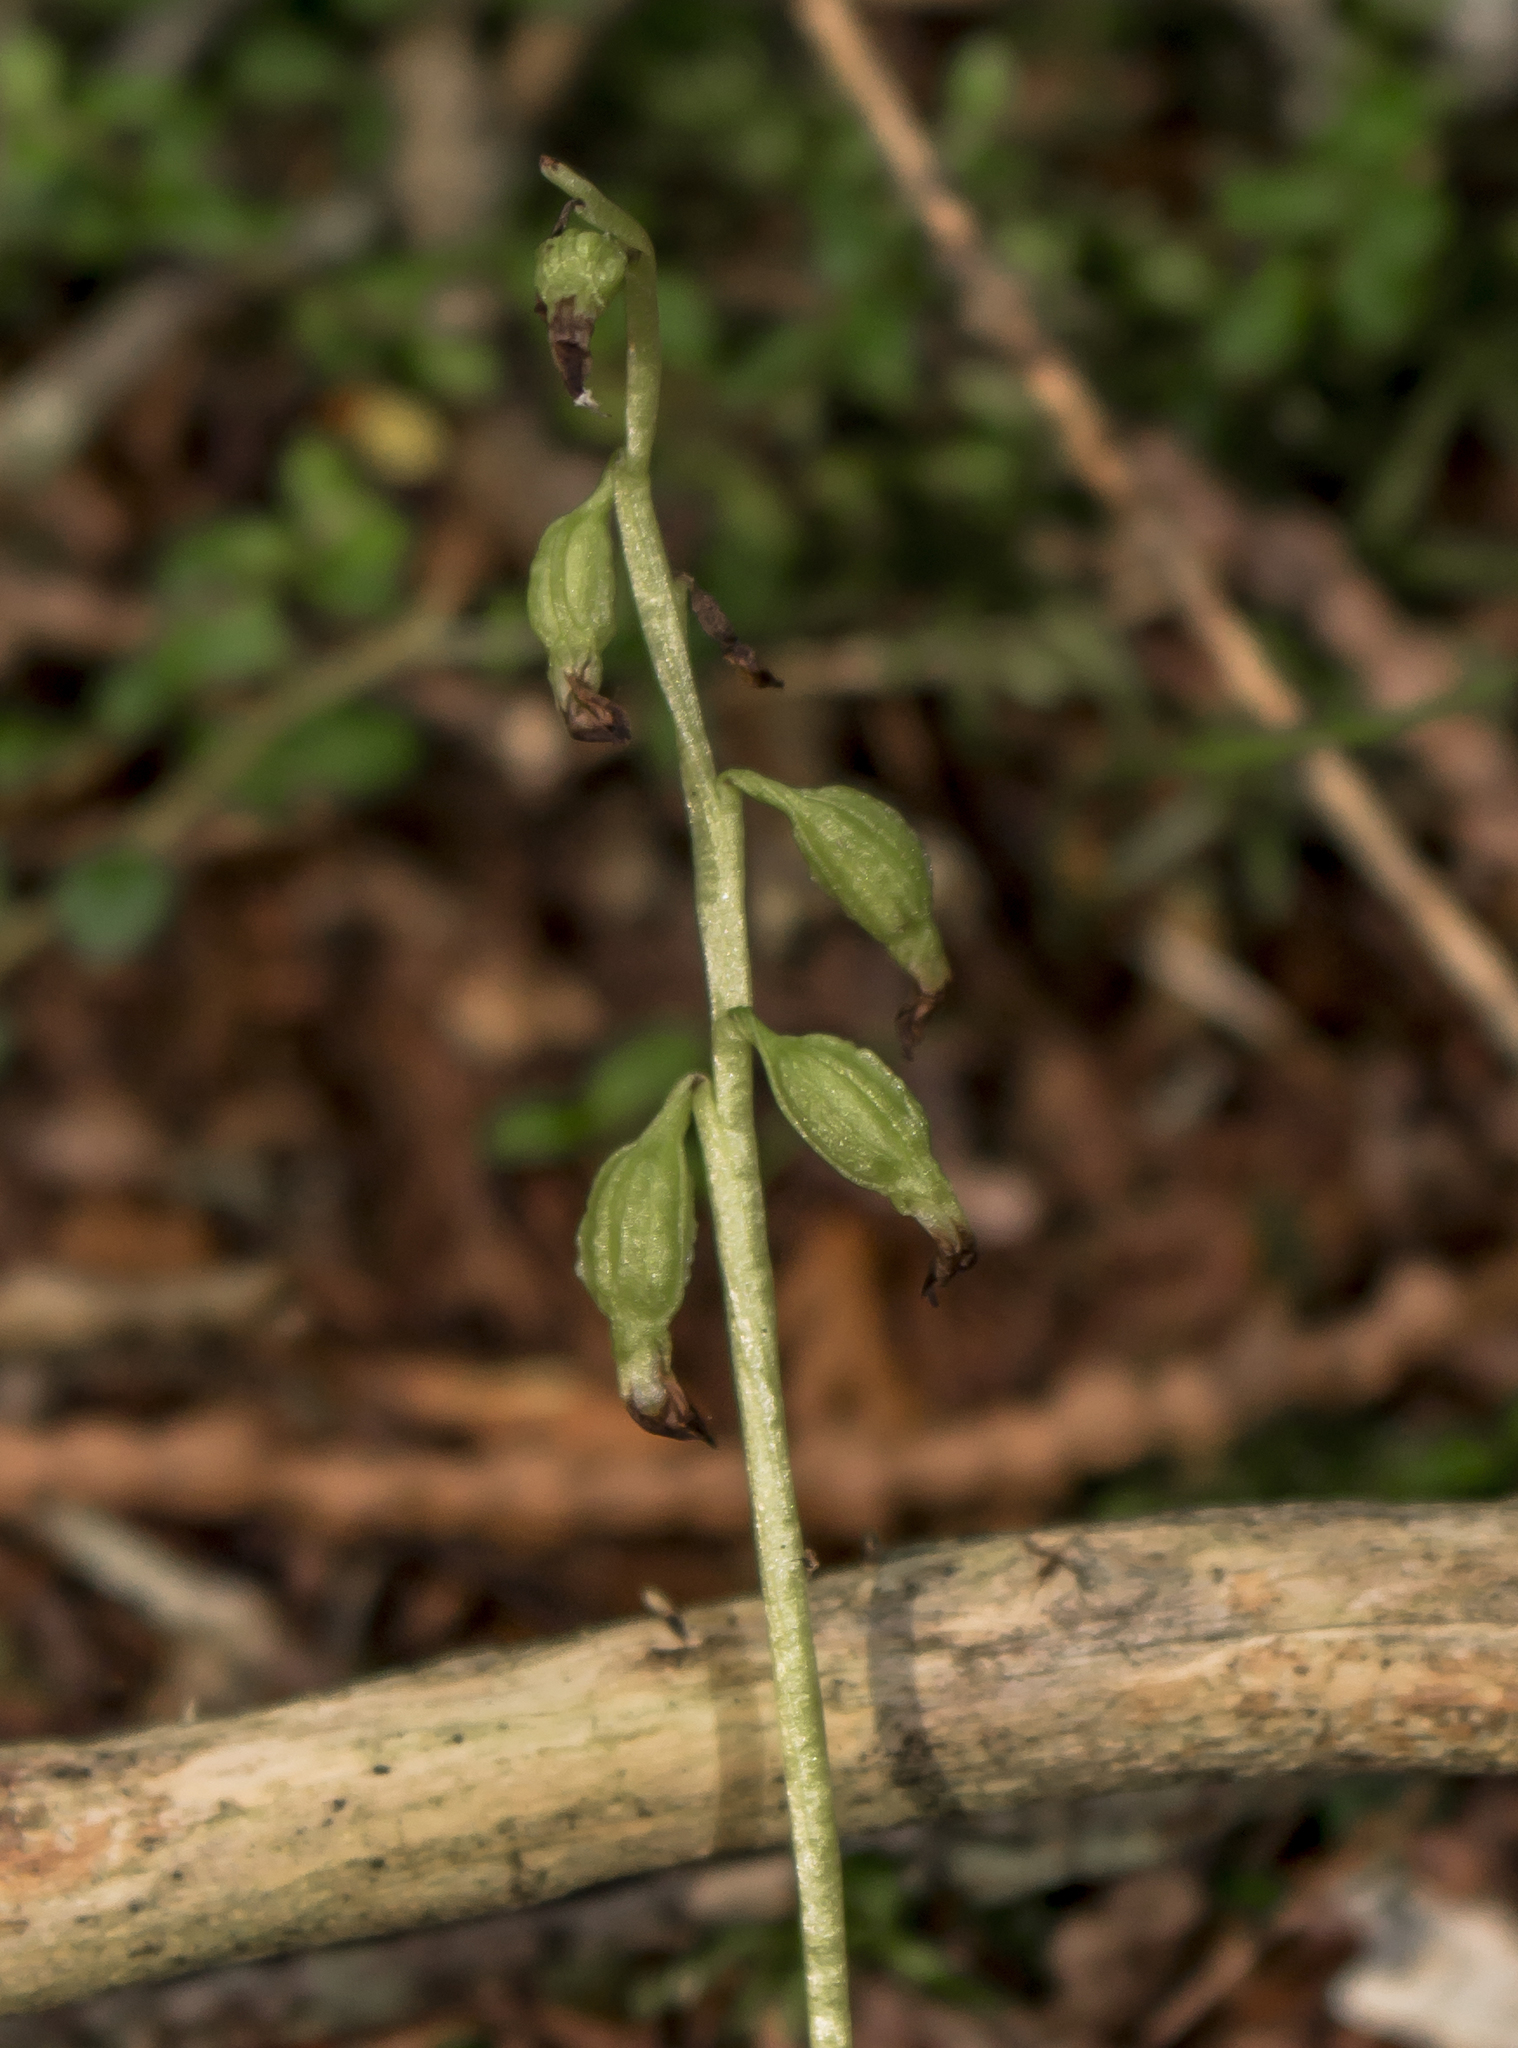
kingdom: Plantae
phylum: Tracheophyta
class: Liliopsida
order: Asparagales
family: Orchidaceae
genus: Corallorhiza
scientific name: Corallorhiza trifida
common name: Yellow coralroot
